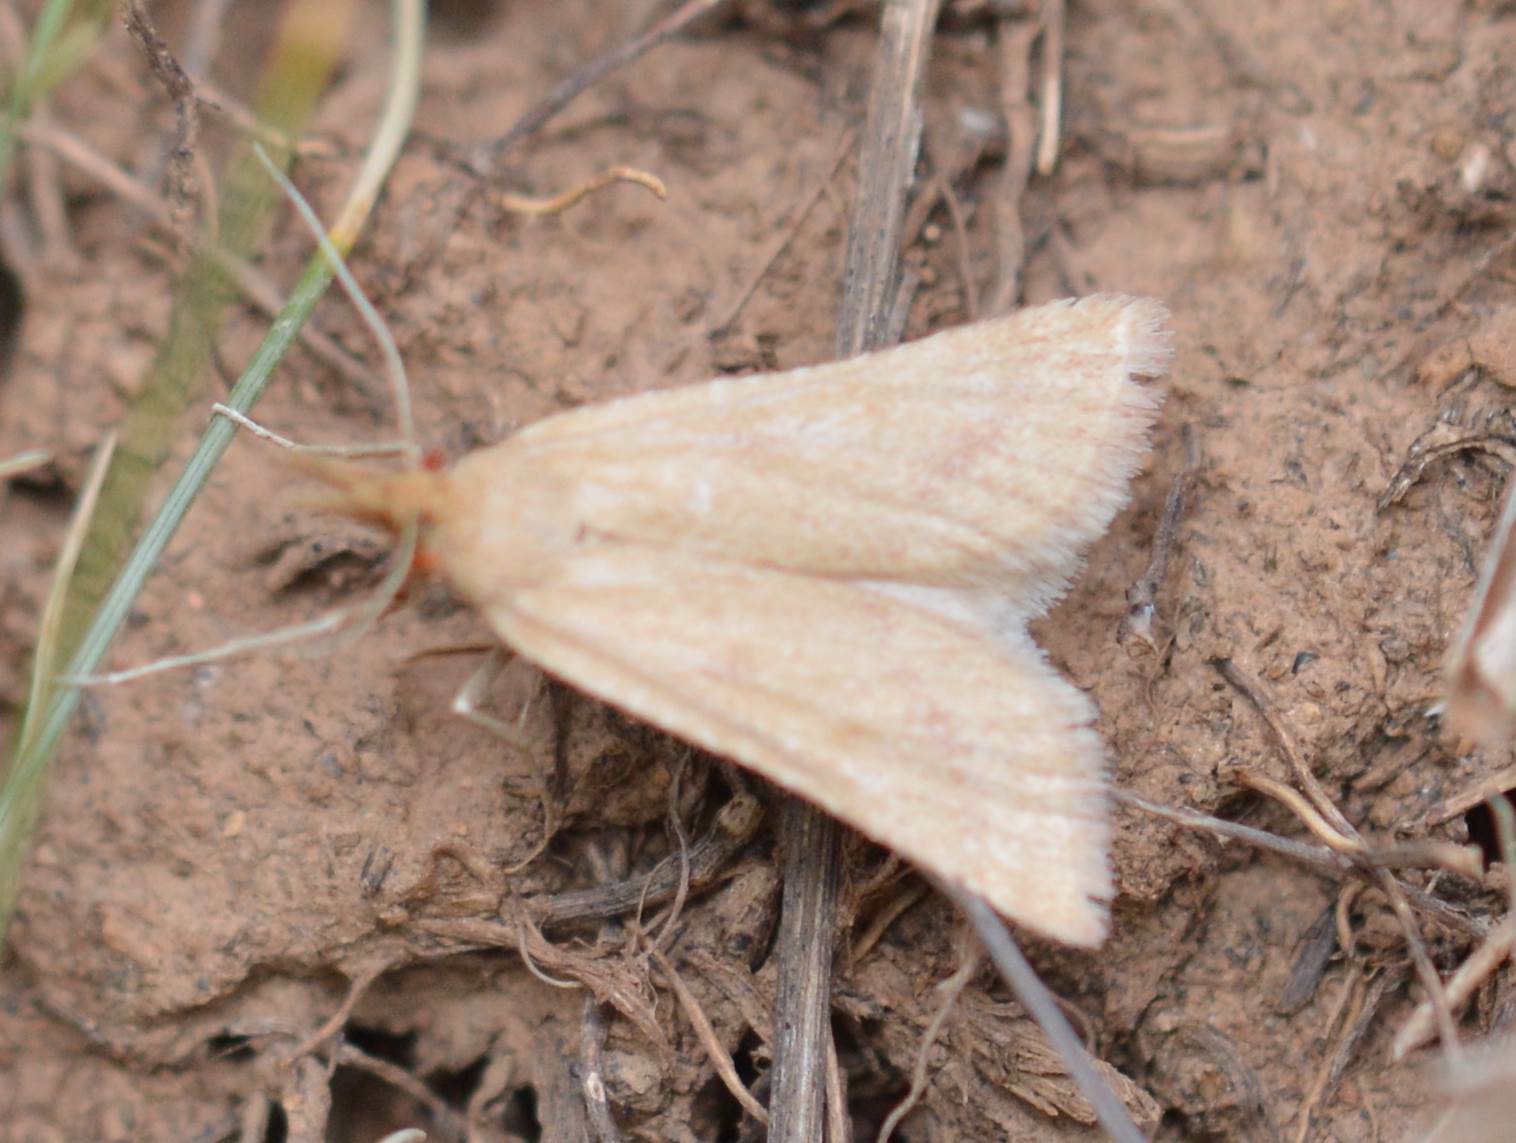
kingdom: Animalia
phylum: Arthropoda
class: Insecta
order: Lepidoptera
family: Pyralidae
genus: Synaphe
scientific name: Synaphe punctalis
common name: Long-legged tabby
